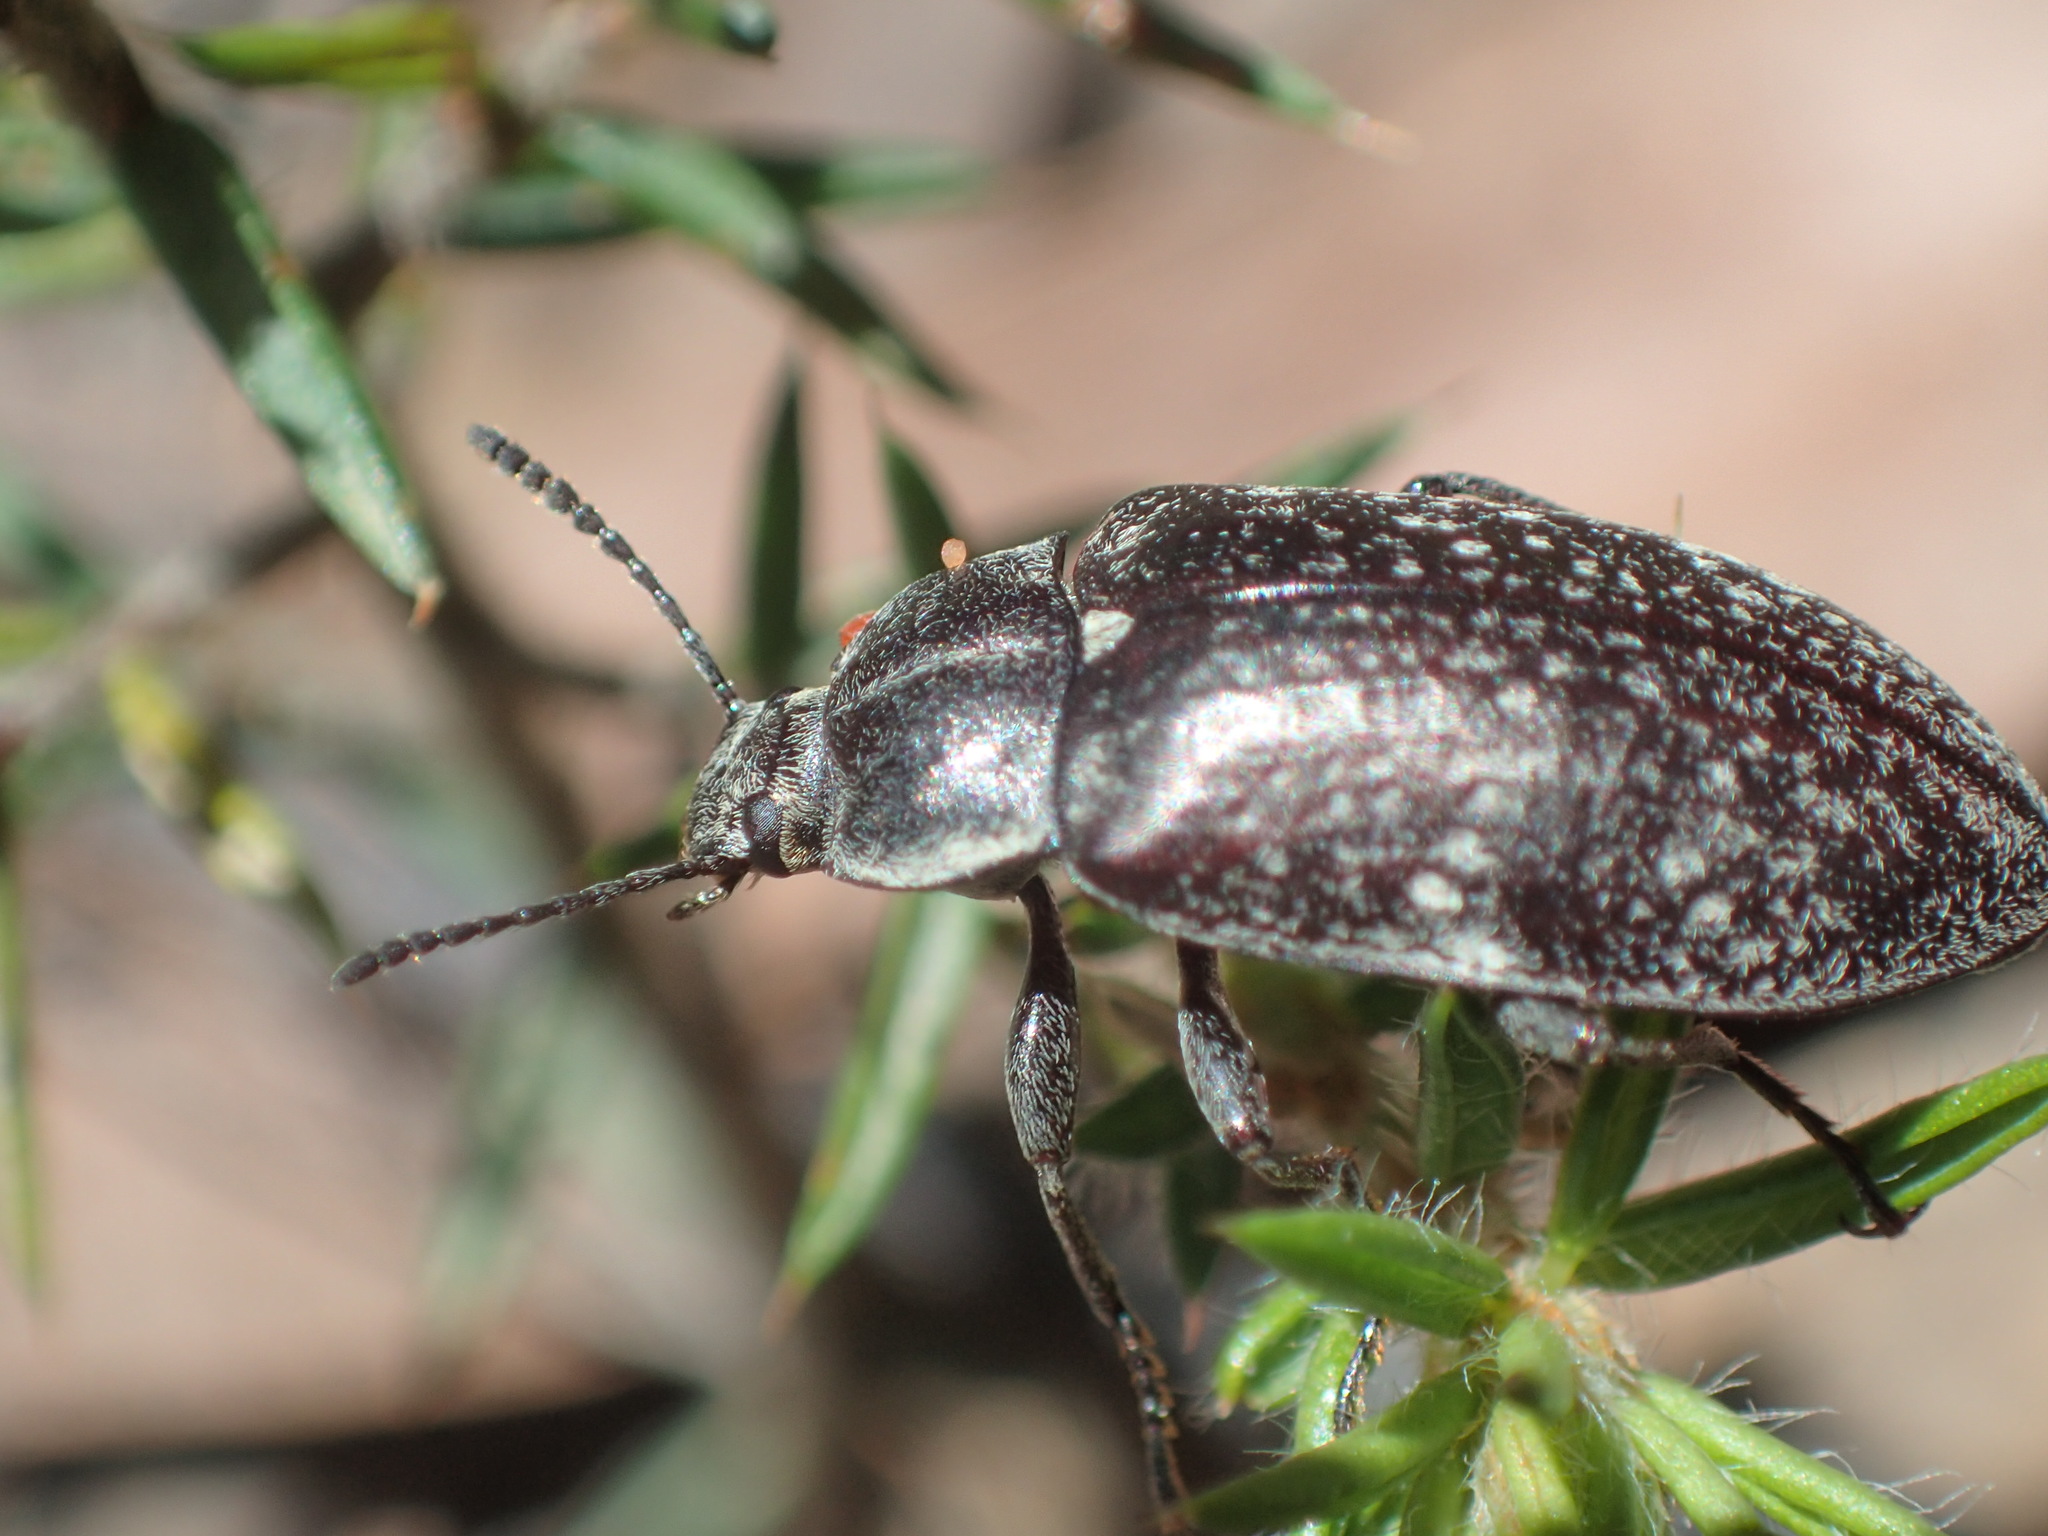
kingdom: Animalia
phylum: Arthropoda
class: Insecta
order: Coleoptera
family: Tenebrionidae
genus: Pachycoelia
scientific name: Pachycoelia
